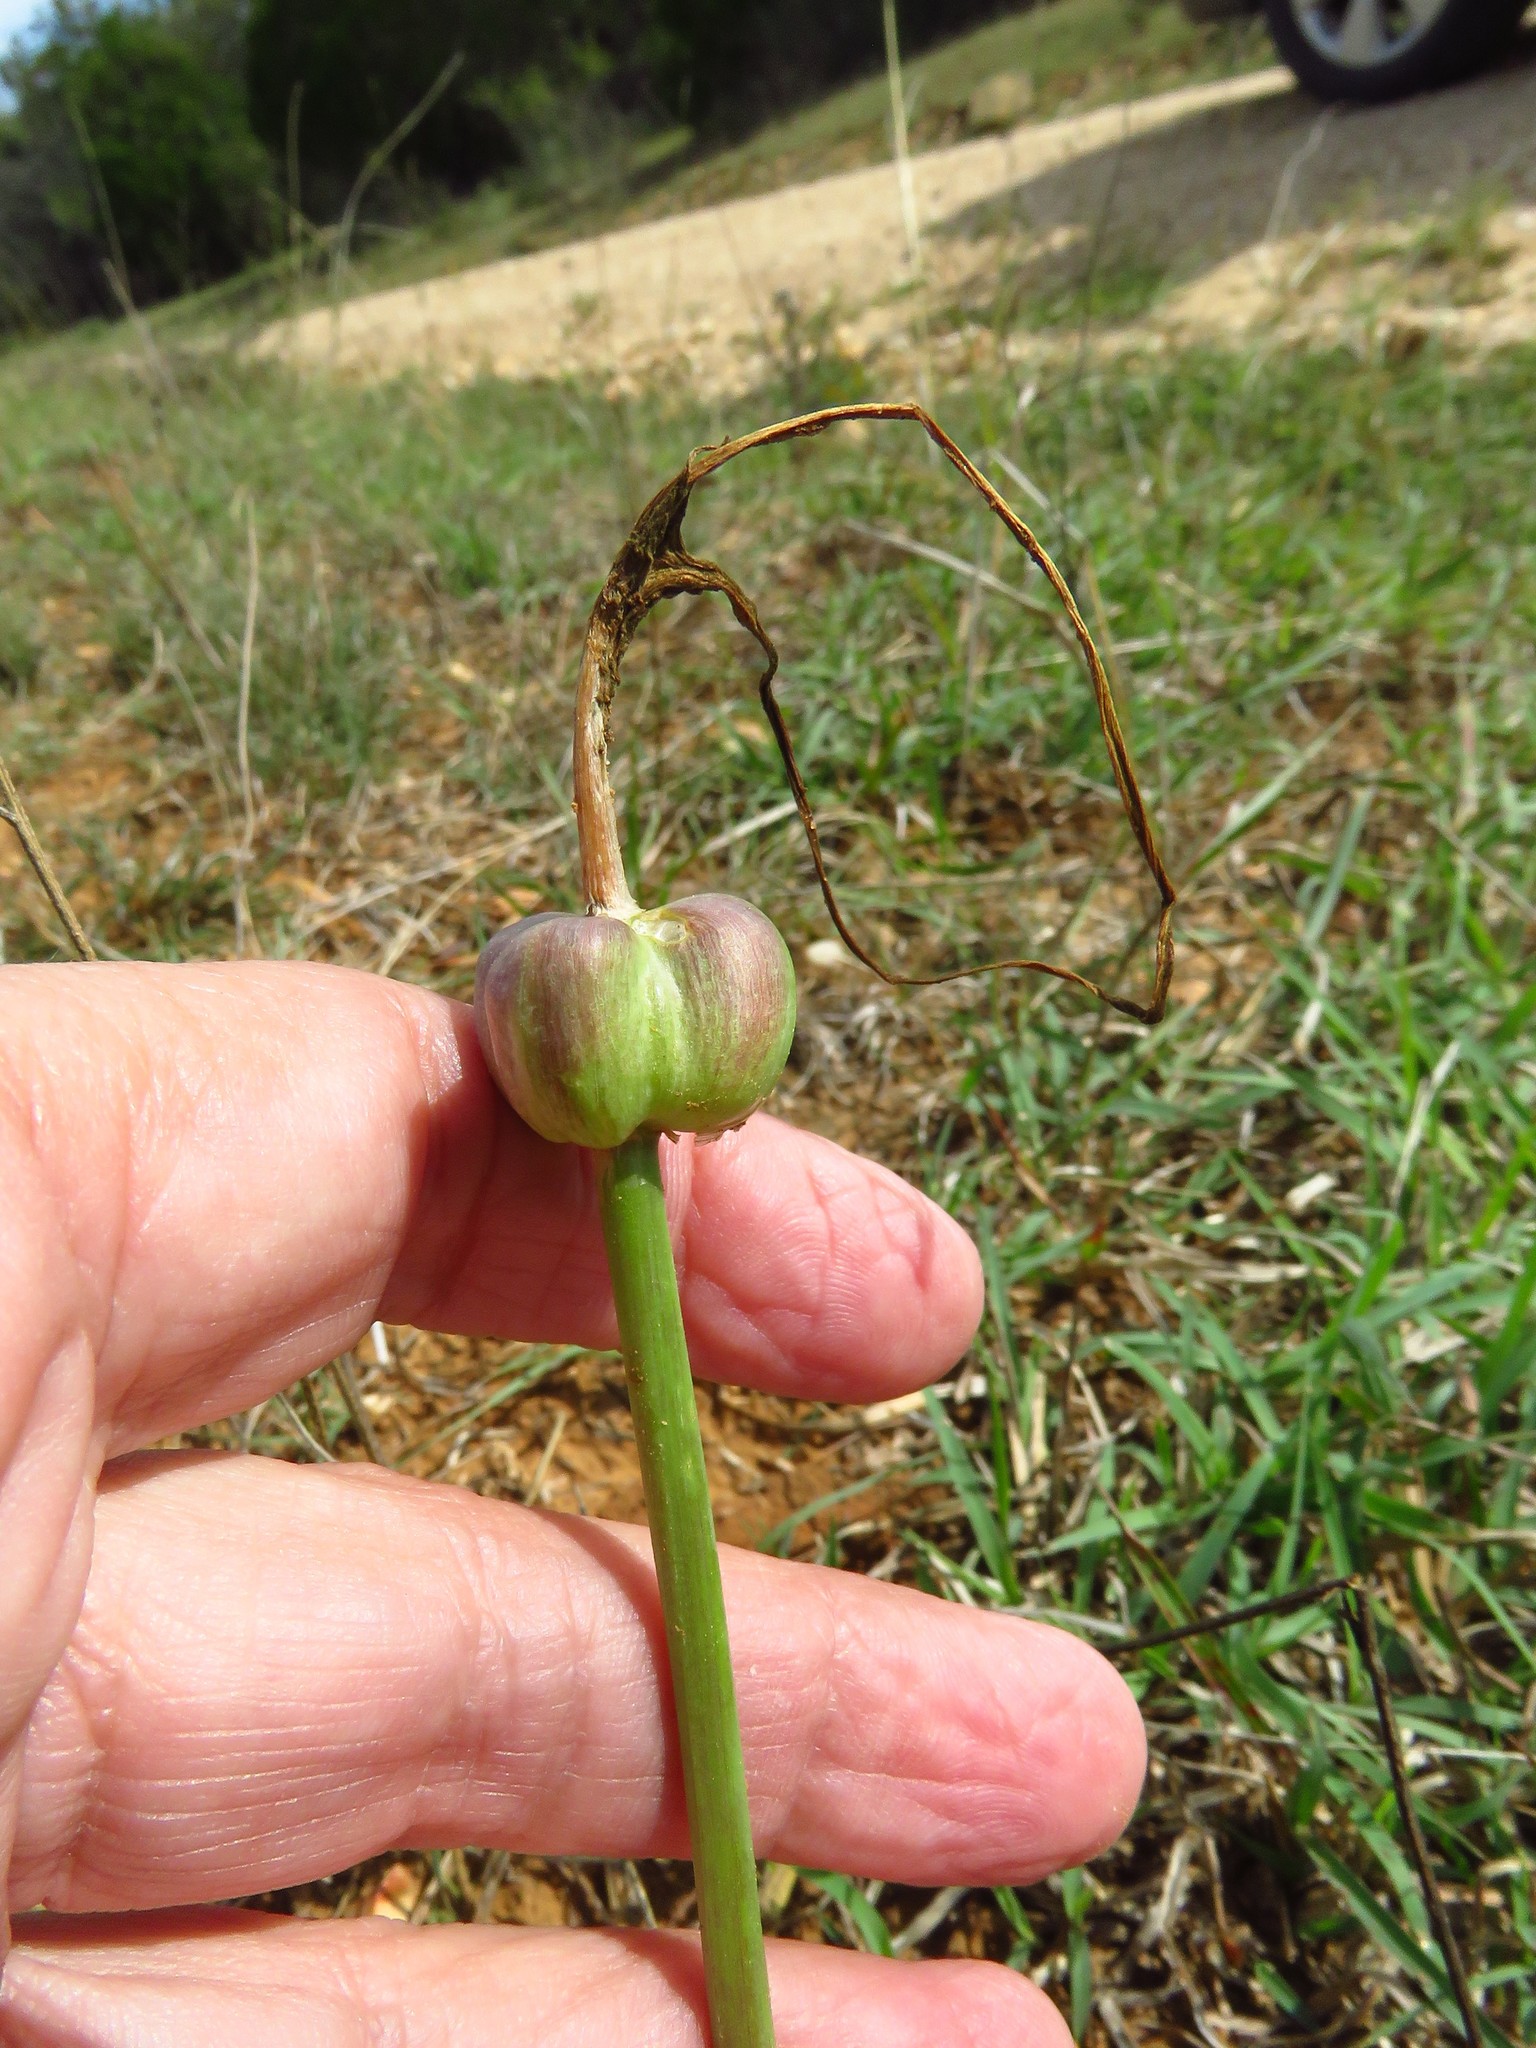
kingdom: Plantae
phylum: Tracheophyta
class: Liliopsida
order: Asparagales
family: Amaryllidaceae
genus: Zephyranthes
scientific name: Zephyranthes chlorosolen
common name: Evening rain-lily
